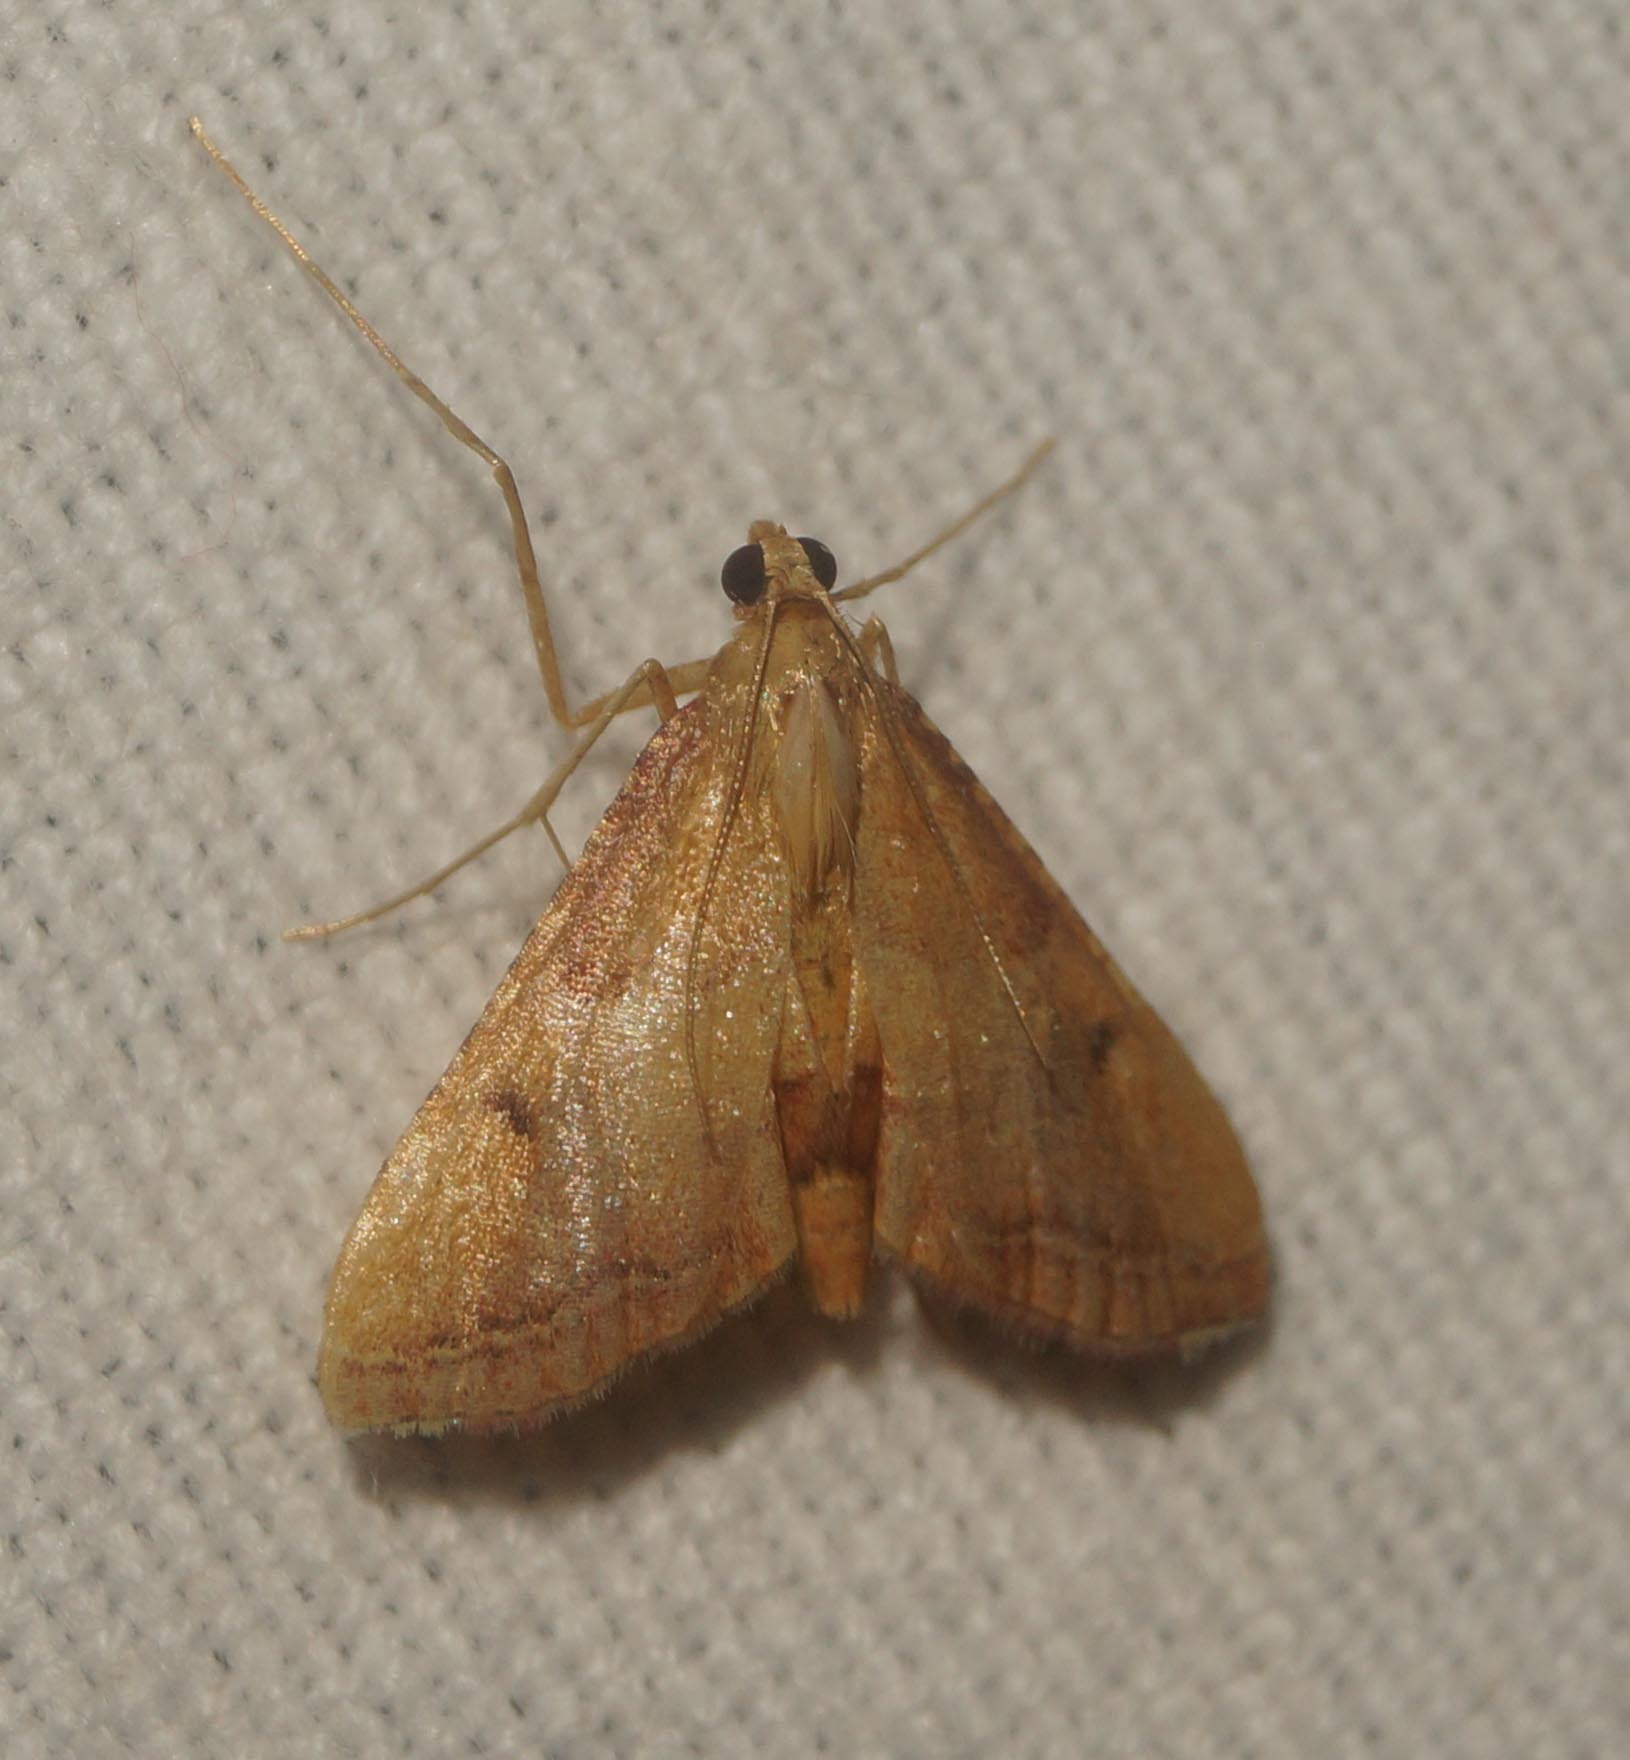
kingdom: Animalia
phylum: Arthropoda
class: Insecta
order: Lepidoptera
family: Pyralidae
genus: Endotricha
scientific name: Endotricha flammealis
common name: Rosy tabby
